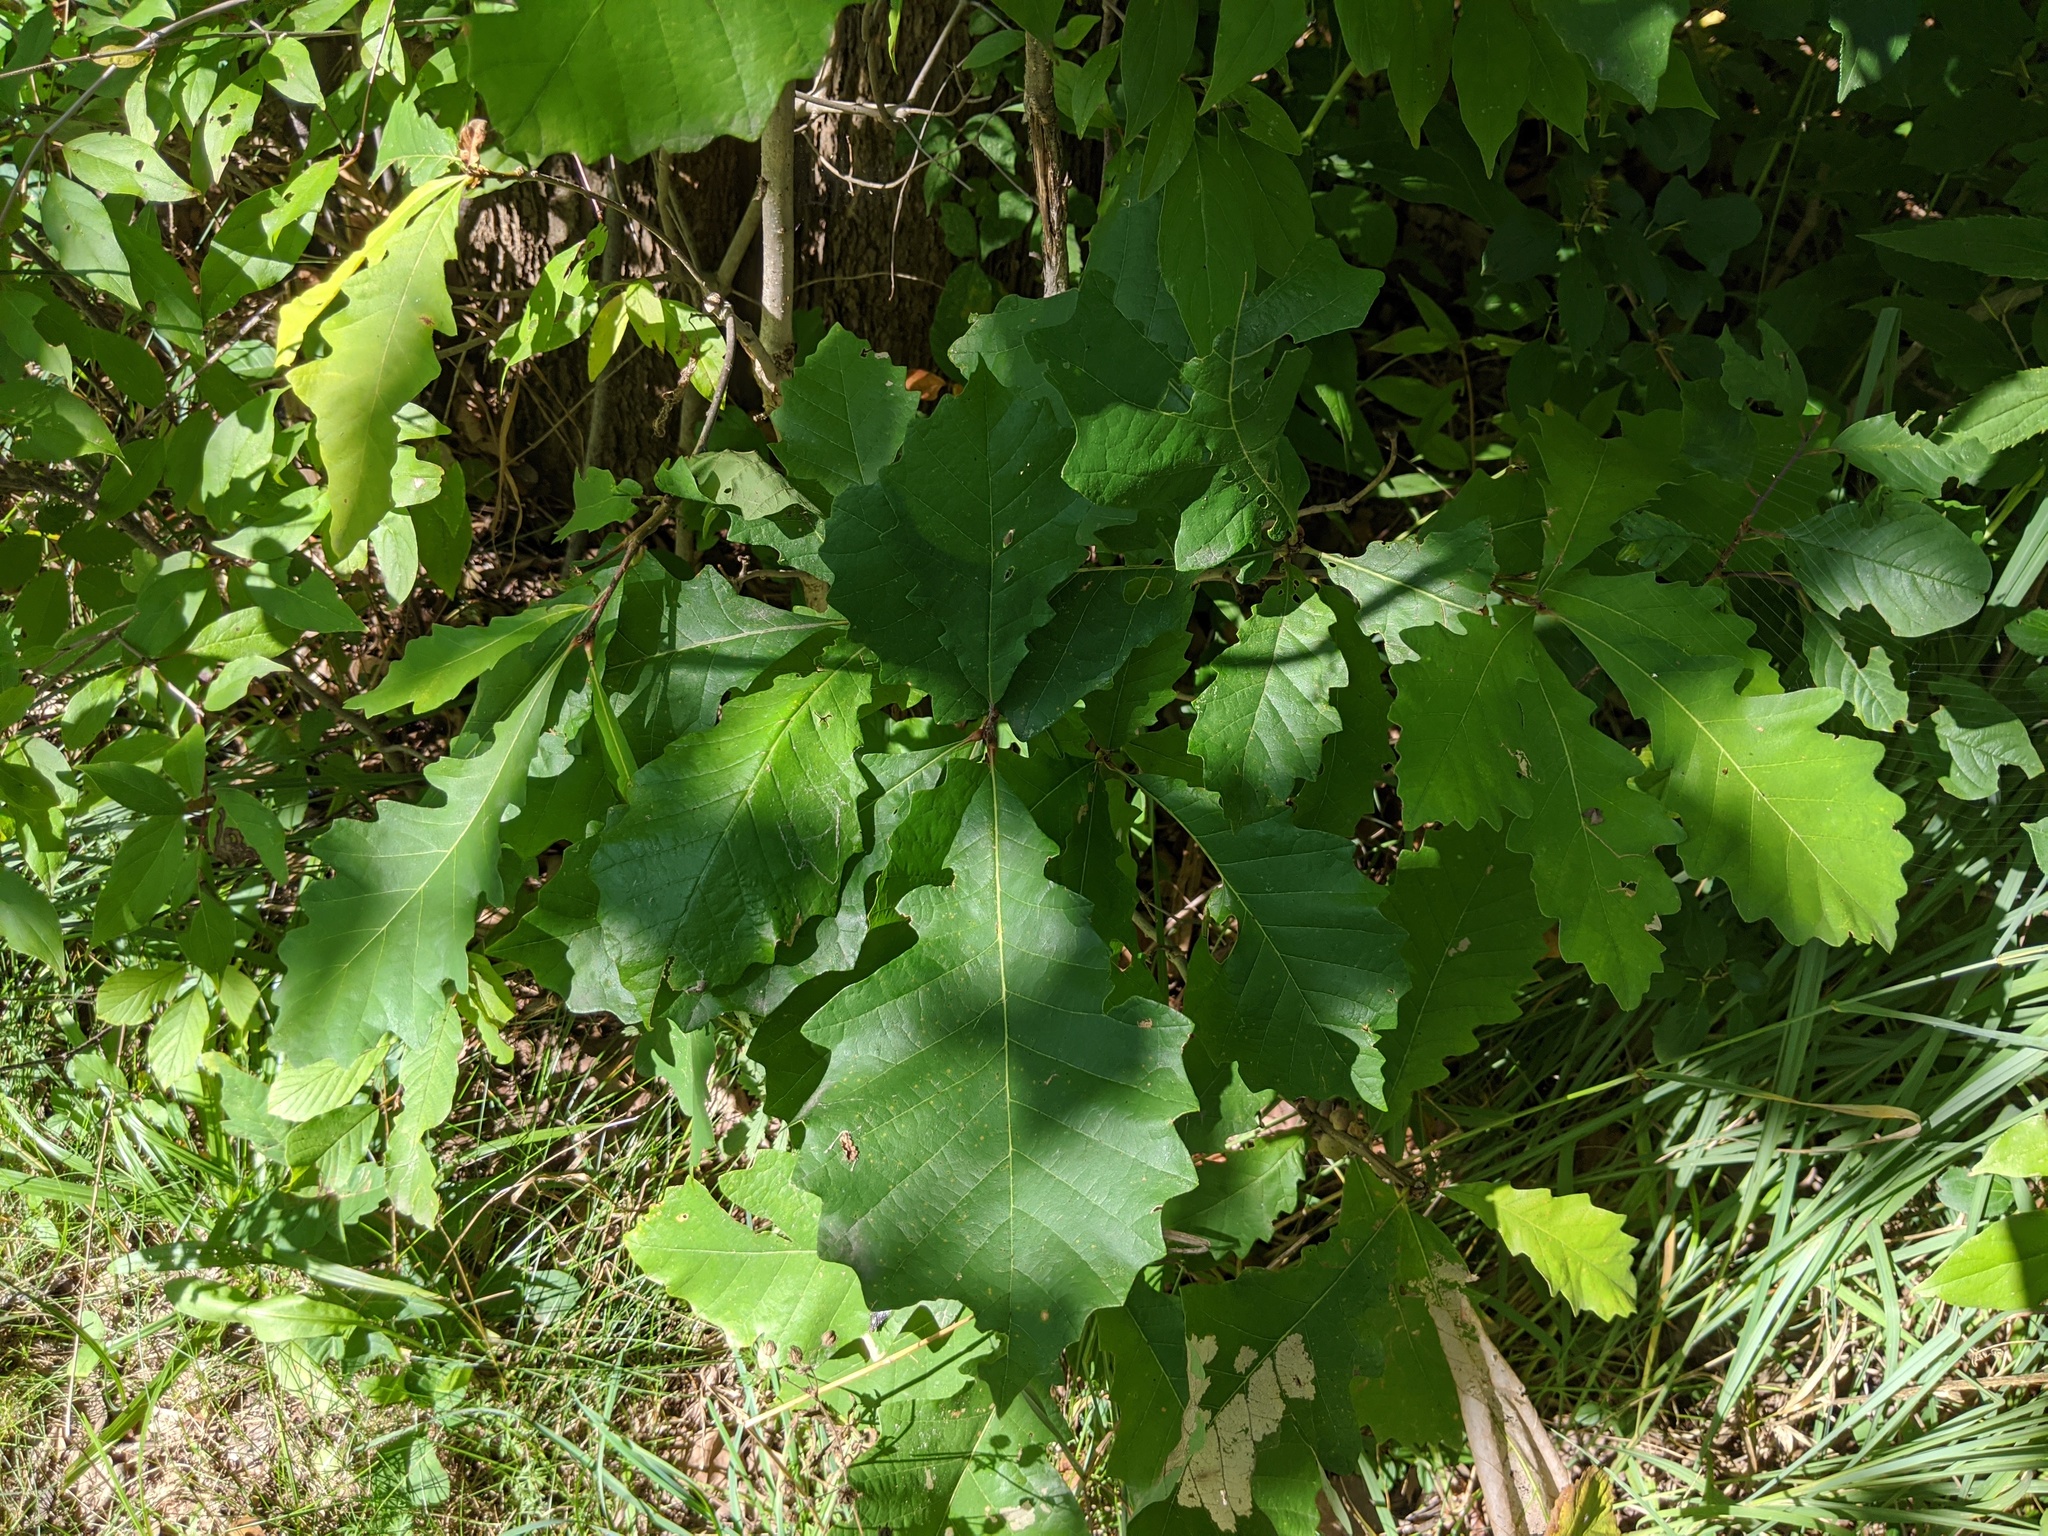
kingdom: Plantae
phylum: Tracheophyta
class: Magnoliopsida
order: Fagales
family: Fagaceae
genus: Quercus
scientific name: Quercus macrocarpa
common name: Bur oak
